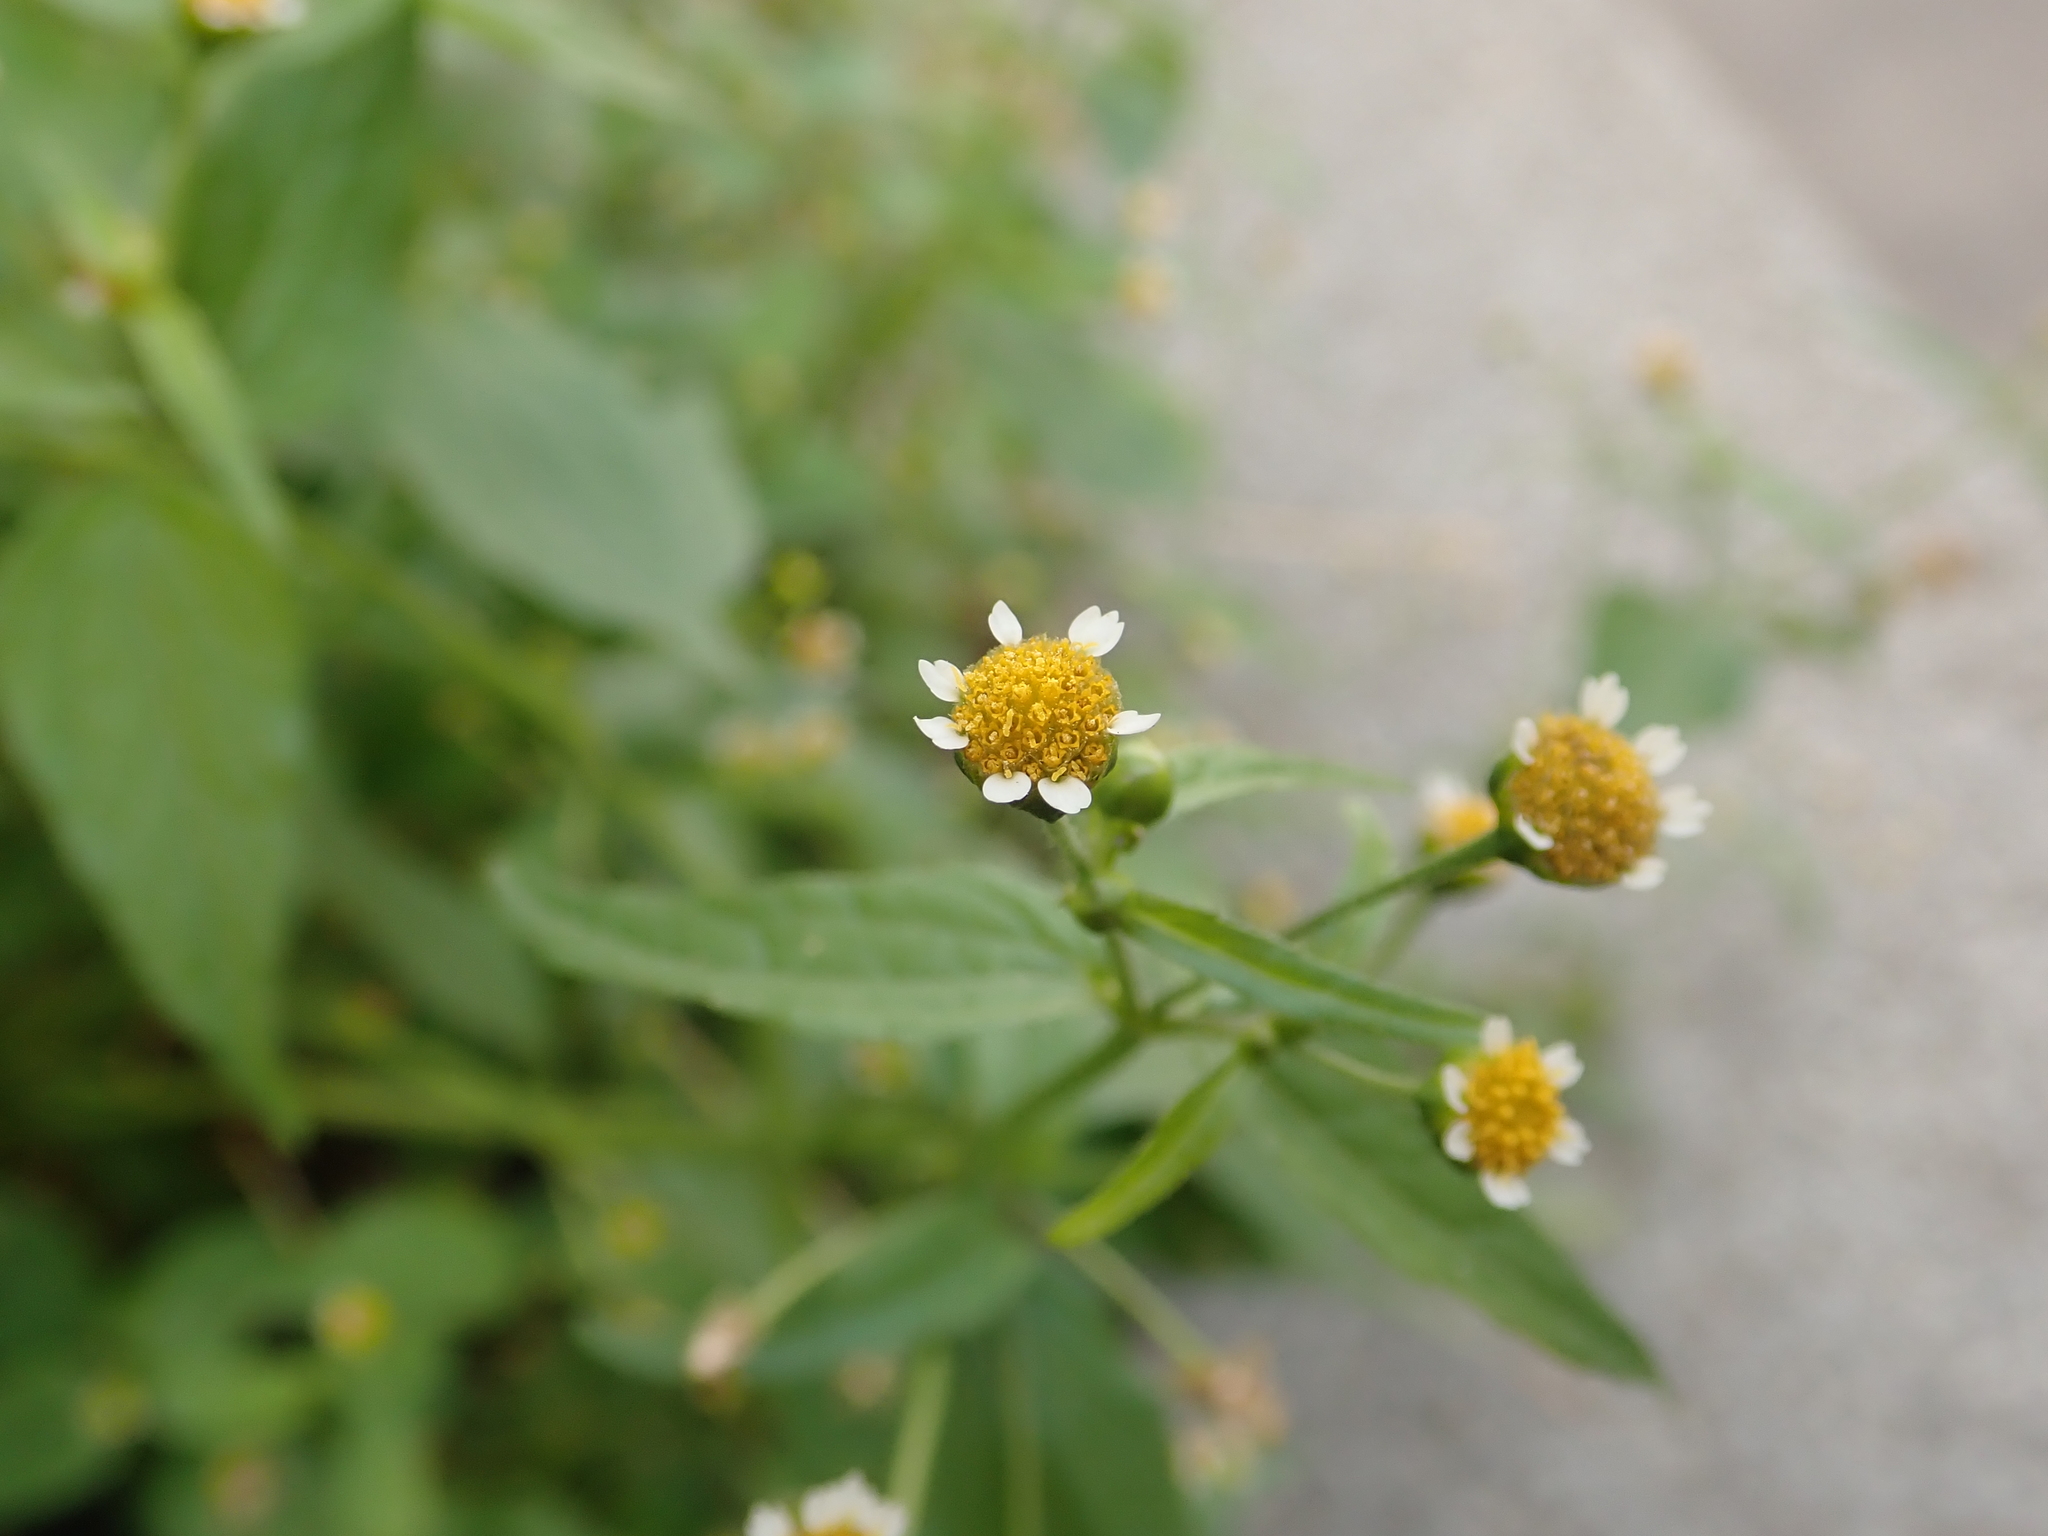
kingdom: Plantae
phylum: Tracheophyta
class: Magnoliopsida
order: Asterales
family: Asteraceae
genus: Galinsoga
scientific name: Galinsoga parviflora
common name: Gallant soldier
